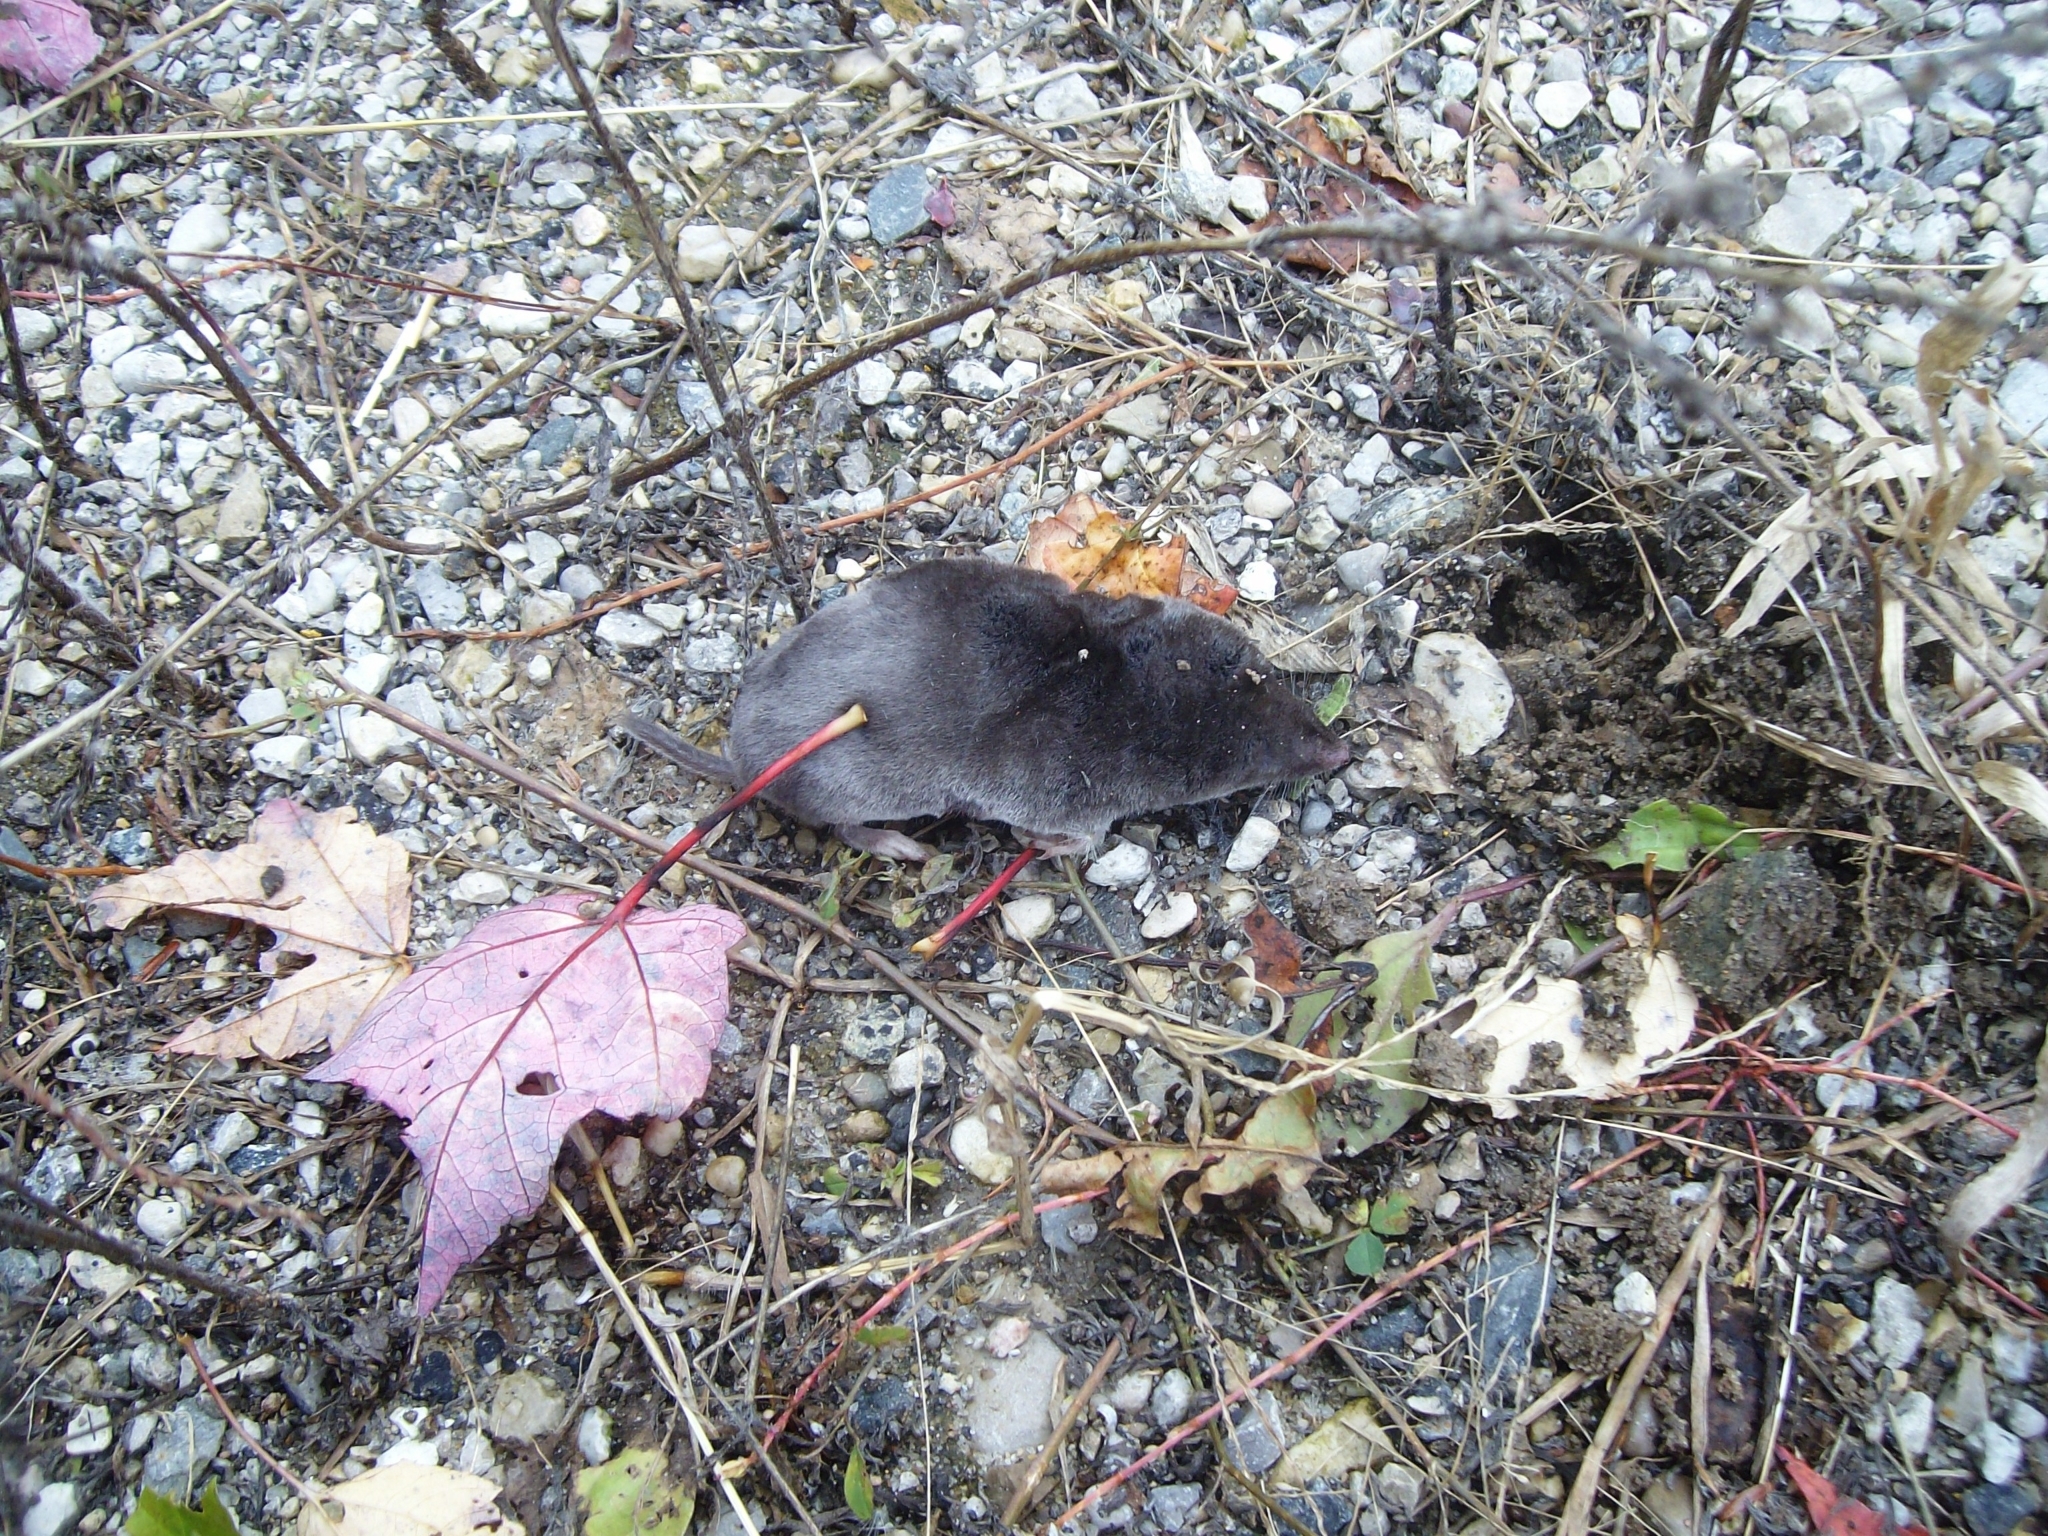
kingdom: Animalia
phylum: Chordata
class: Mammalia
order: Soricomorpha
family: Soricidae
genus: Blarina
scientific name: Blarina brevicauda
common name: Northern short-tailed shrew
